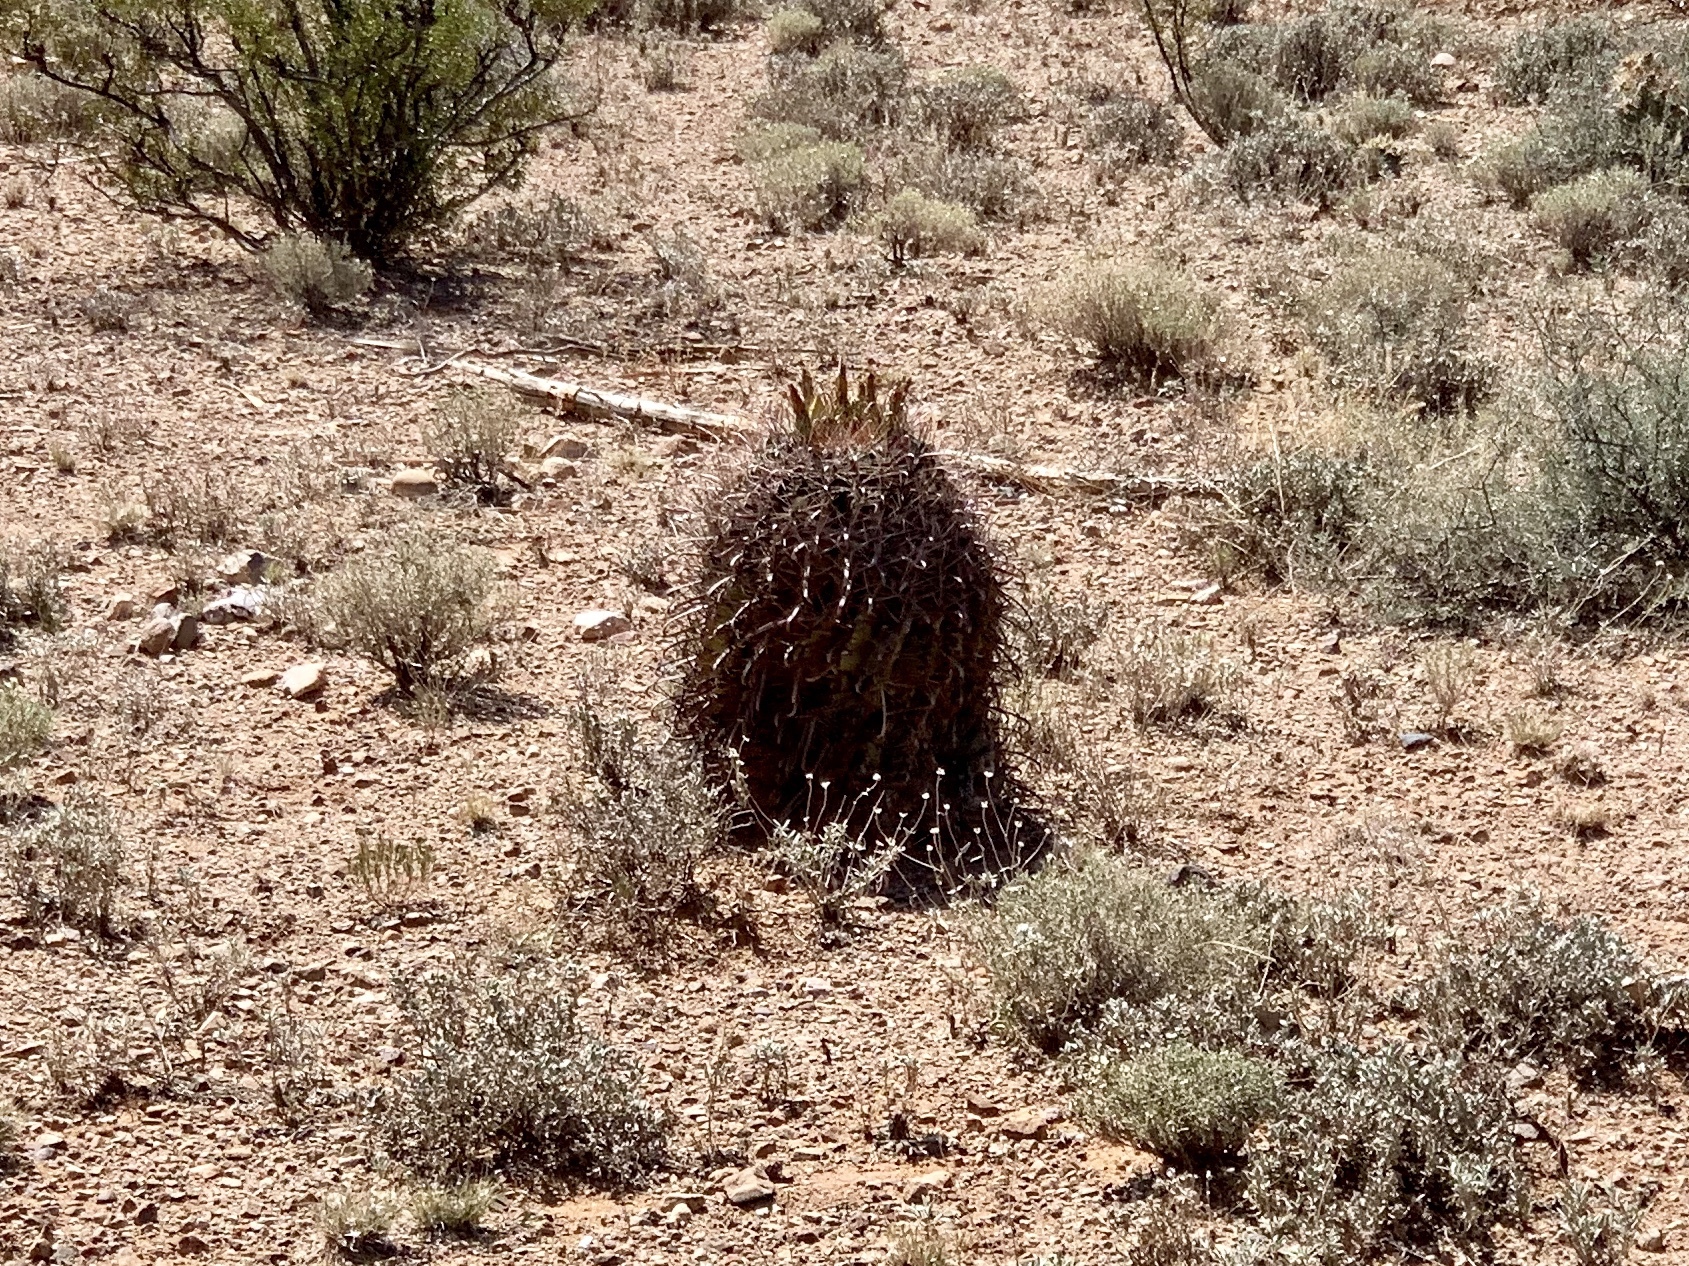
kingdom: Plantae
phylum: Tracheophyta
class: Magnoliopsida
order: Caryophyllales
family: Cactaceae
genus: Ferocactus
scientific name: Ferocactus wislizeni
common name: Candy barrel cactus
